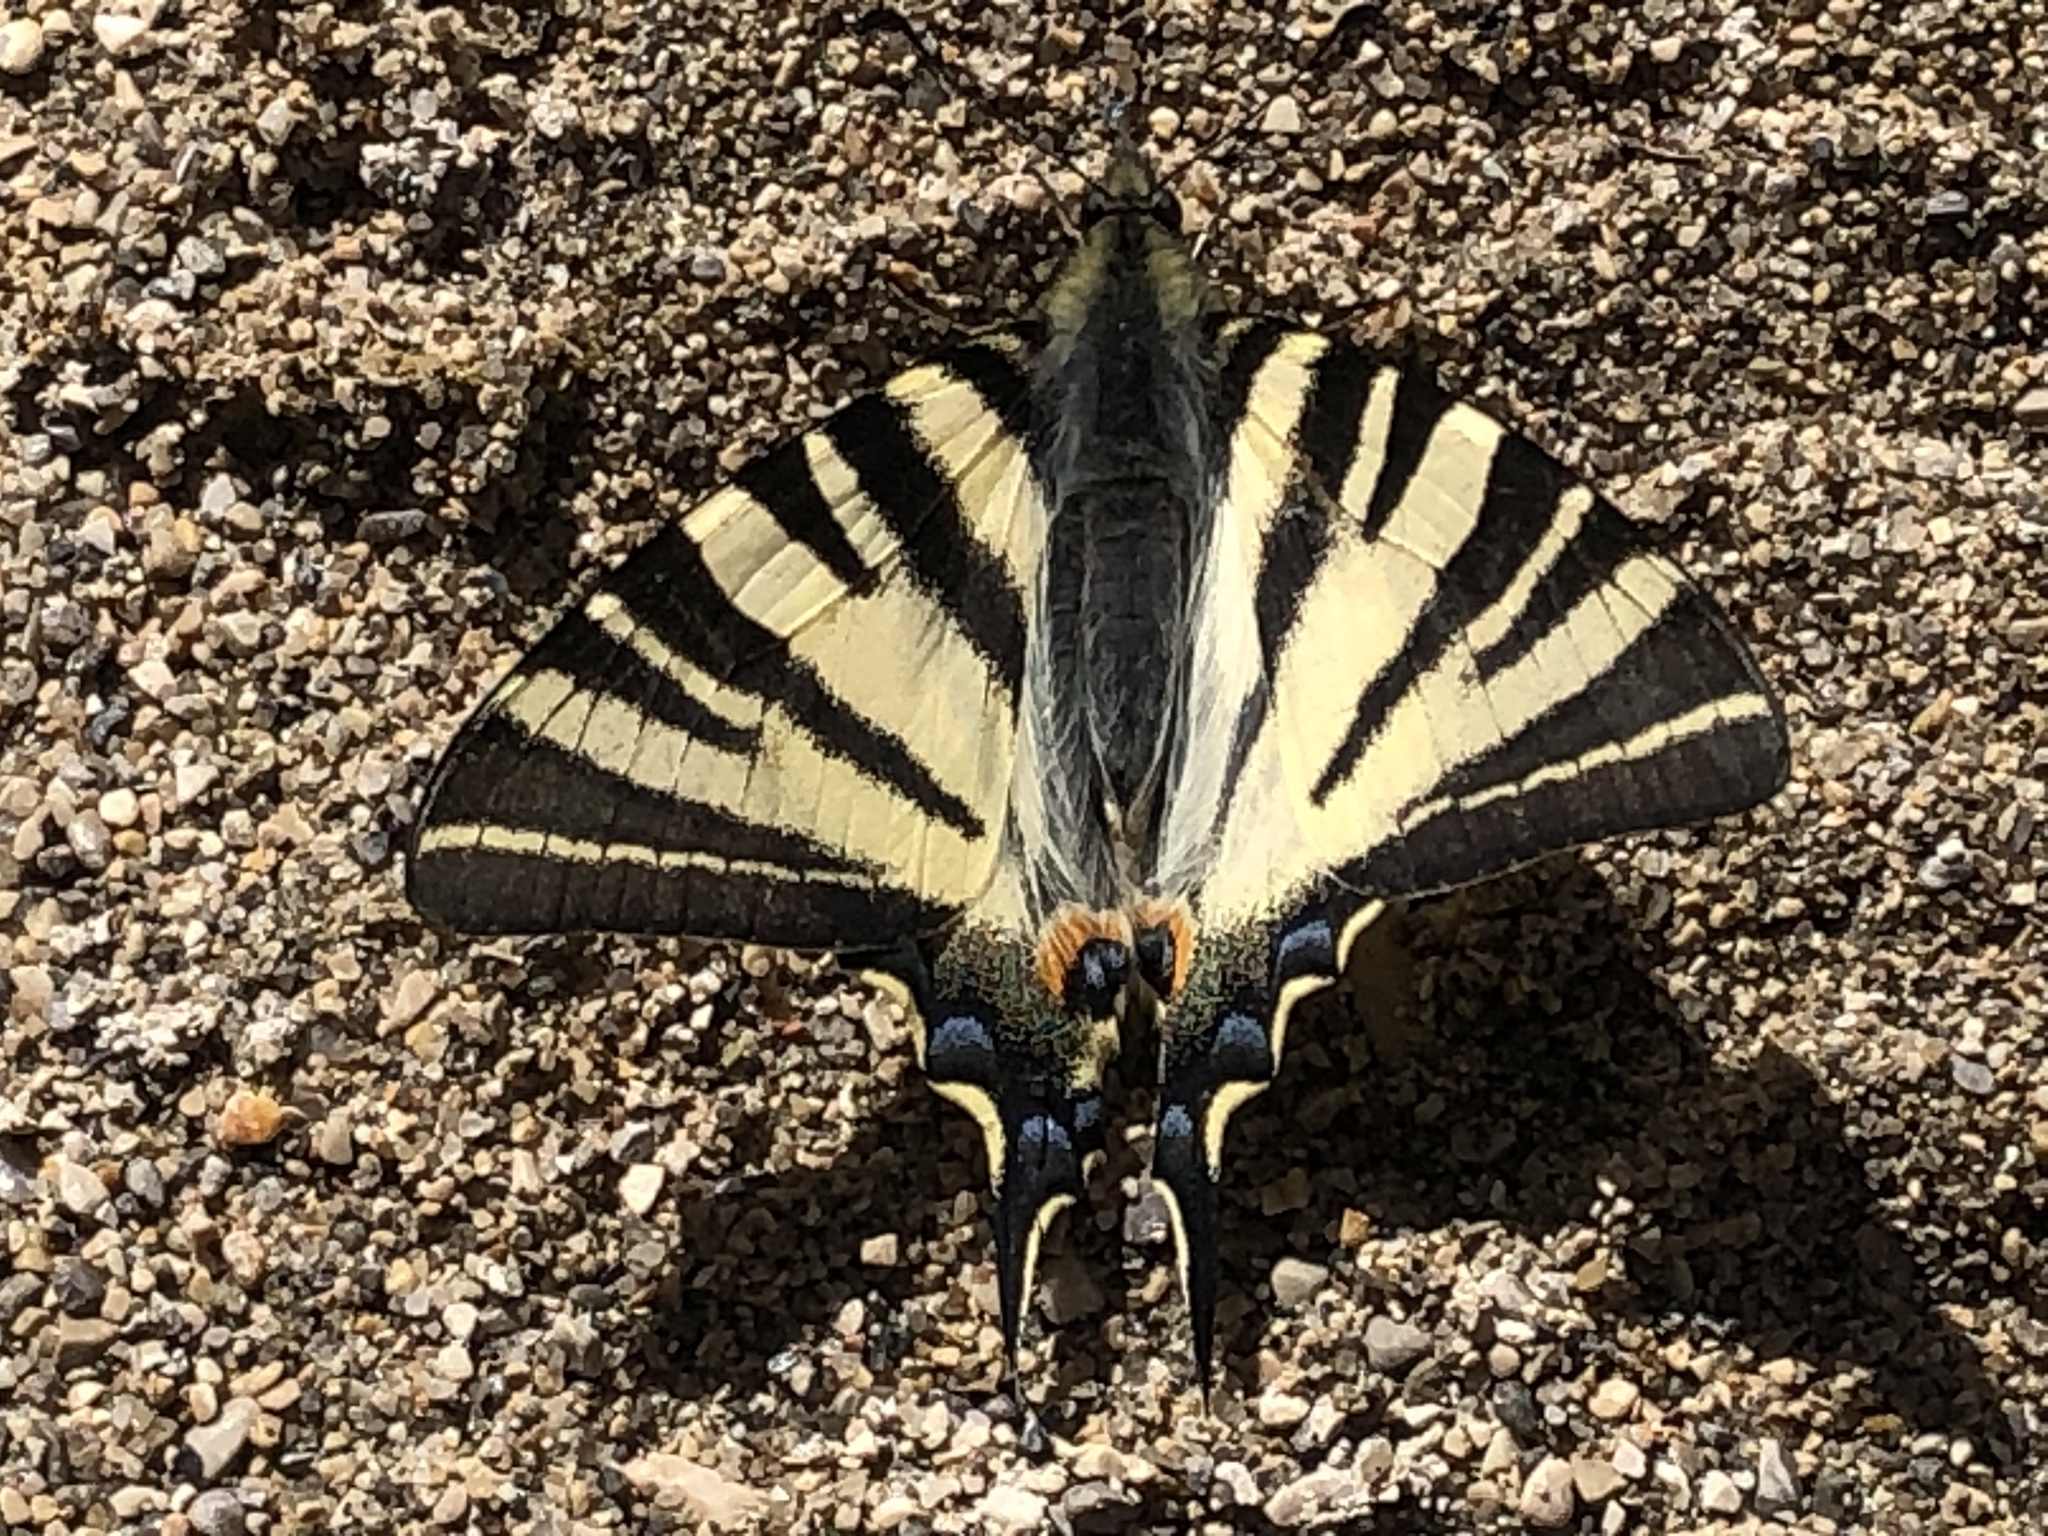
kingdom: Animalia
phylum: Arthropoda
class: Insecta
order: Lepidoptera
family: Papilionidae
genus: Iphiclides
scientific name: Iphiclides podalirius
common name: Scarce swallowtail
